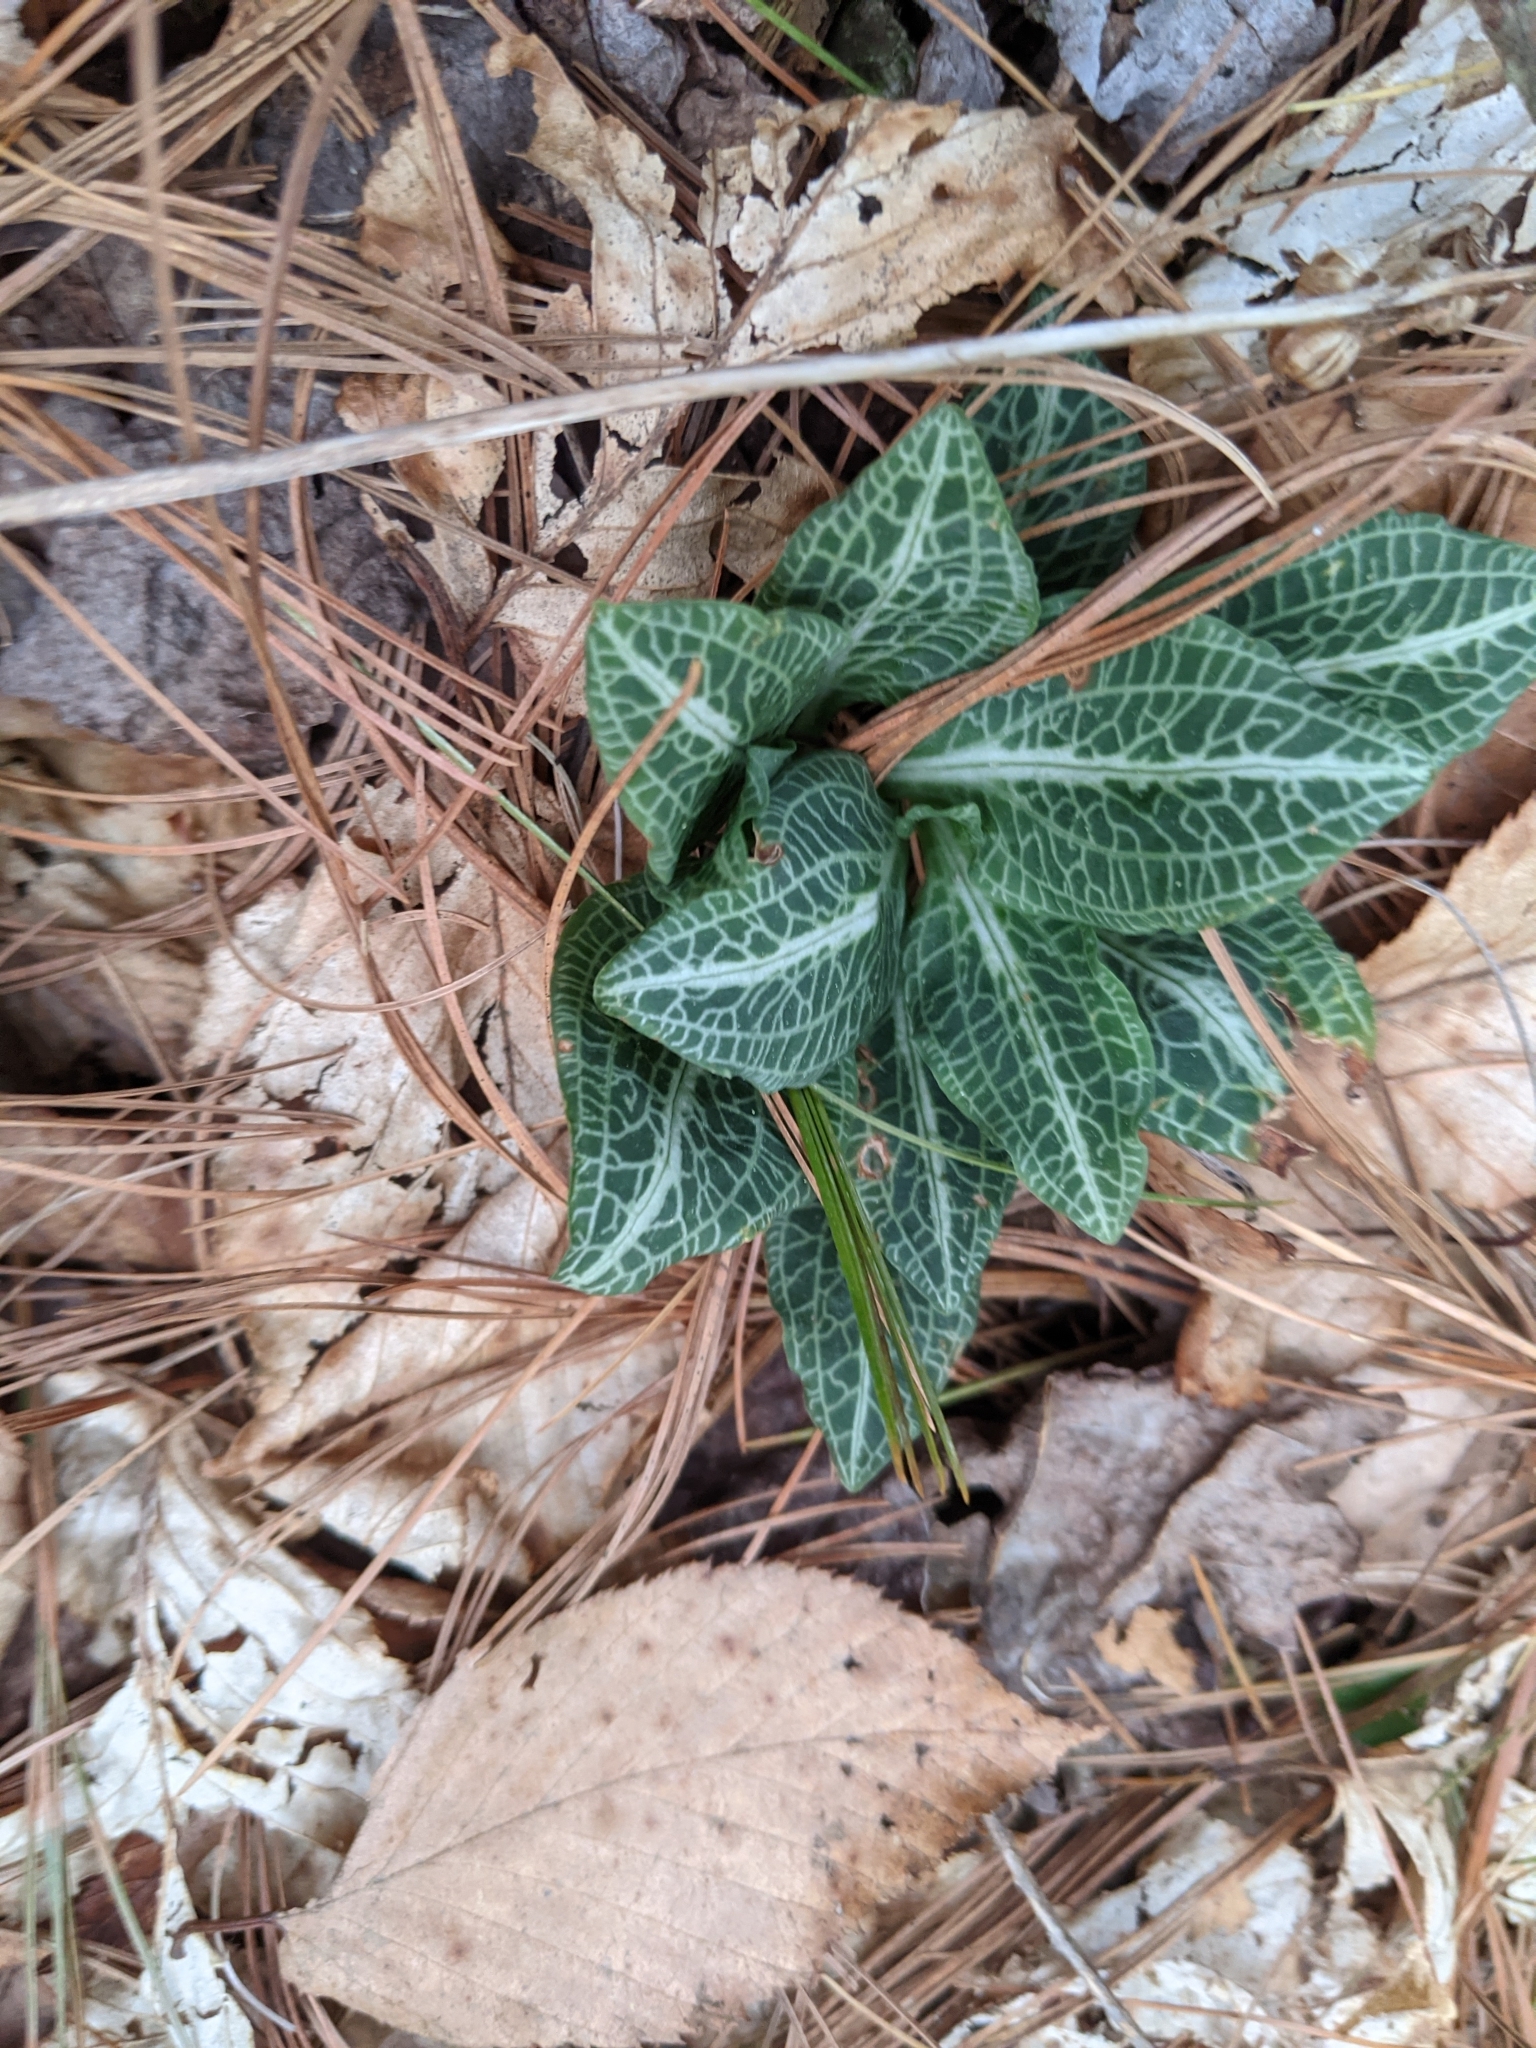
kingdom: Plantae
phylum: Tracheophyta
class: Liliopsida
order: Asparagales
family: Orchidaceae
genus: Goodyera
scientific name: Goodyera pubescens
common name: Downy rattlesnake-plantain
